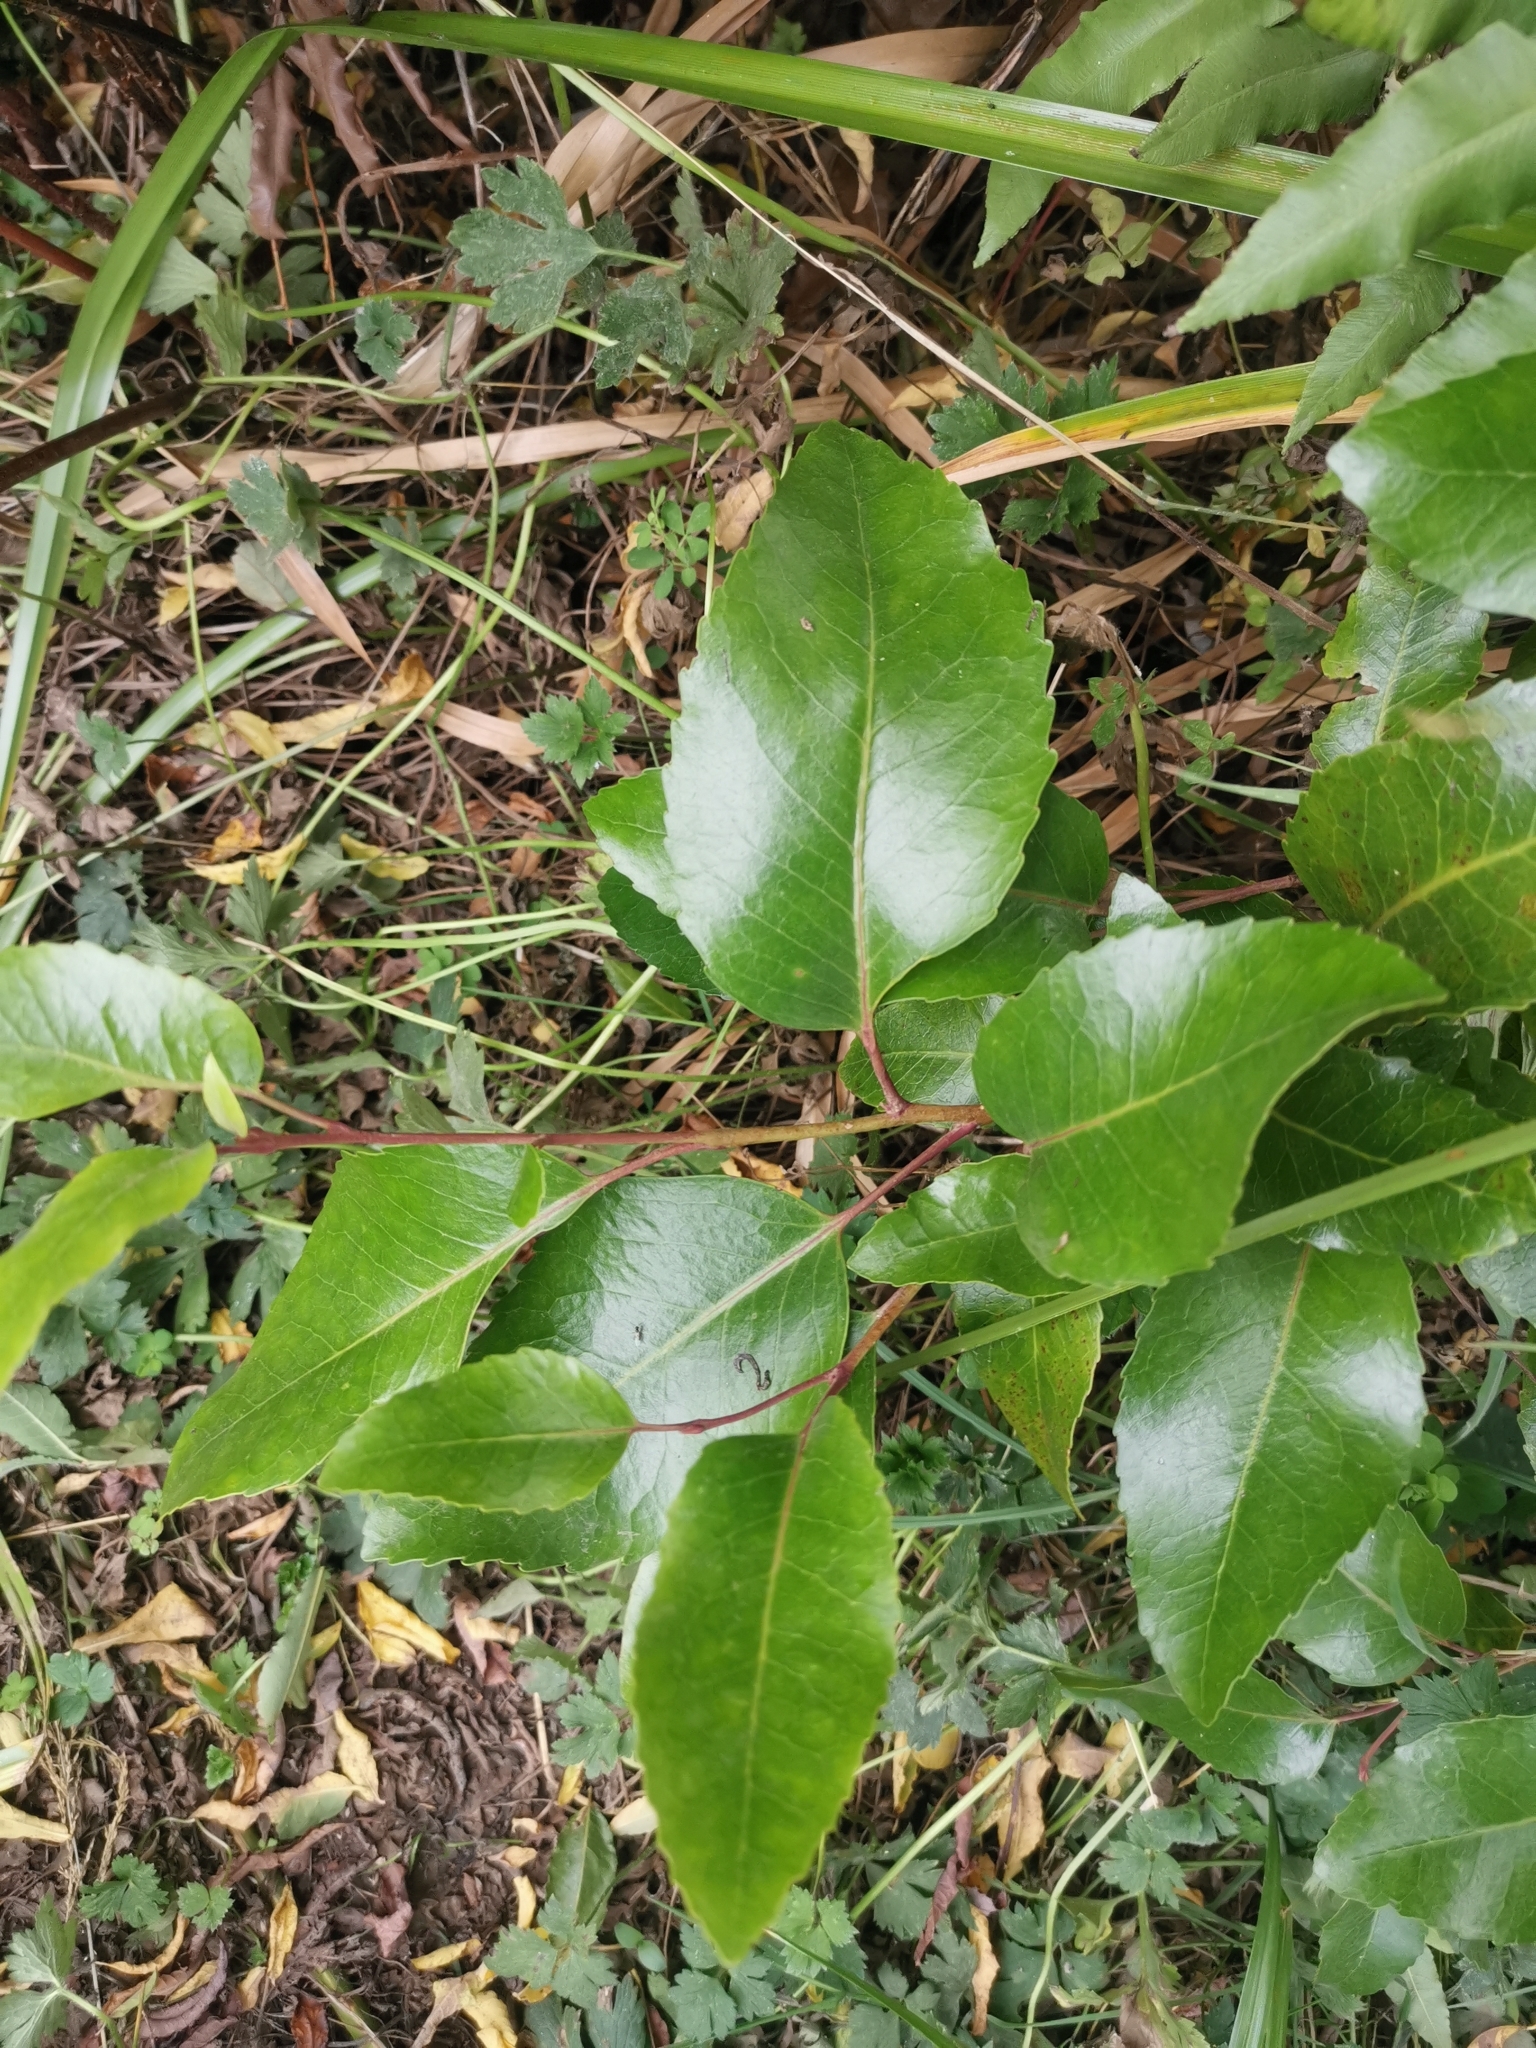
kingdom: Plantae
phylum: Tracheophyta
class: Magnoliopsida
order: Proteales
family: Proteaceae
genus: Lomatia
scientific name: Lomatia hirsuta
